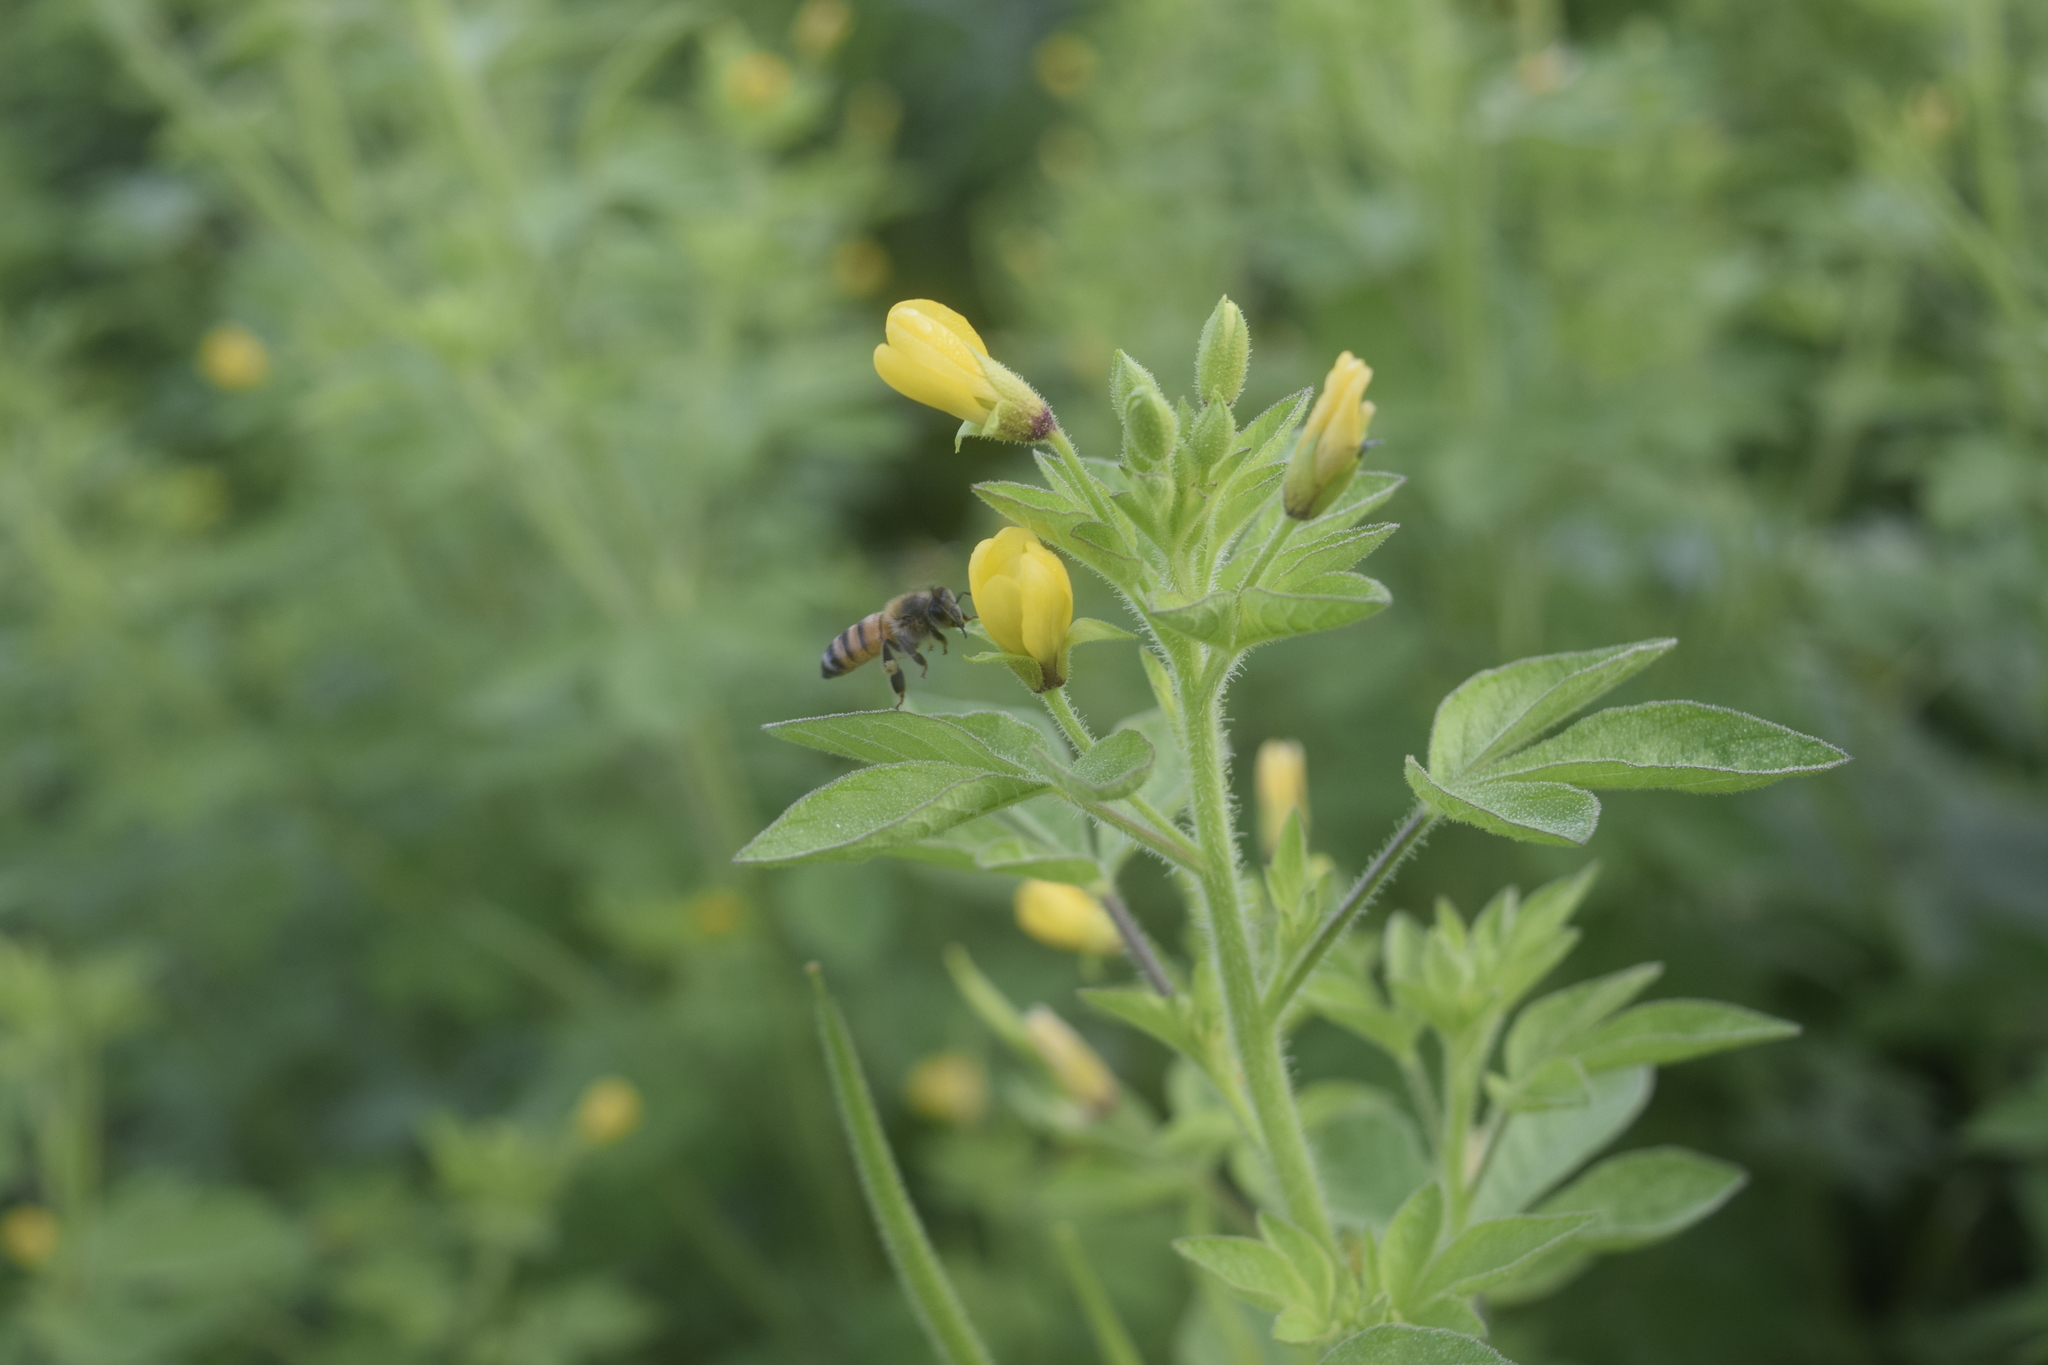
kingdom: Animalia
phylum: Arthropoda
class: Insecta
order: Hymenoptera
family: Apidae
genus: Apis
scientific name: Apis mellifera
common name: Honey bee
